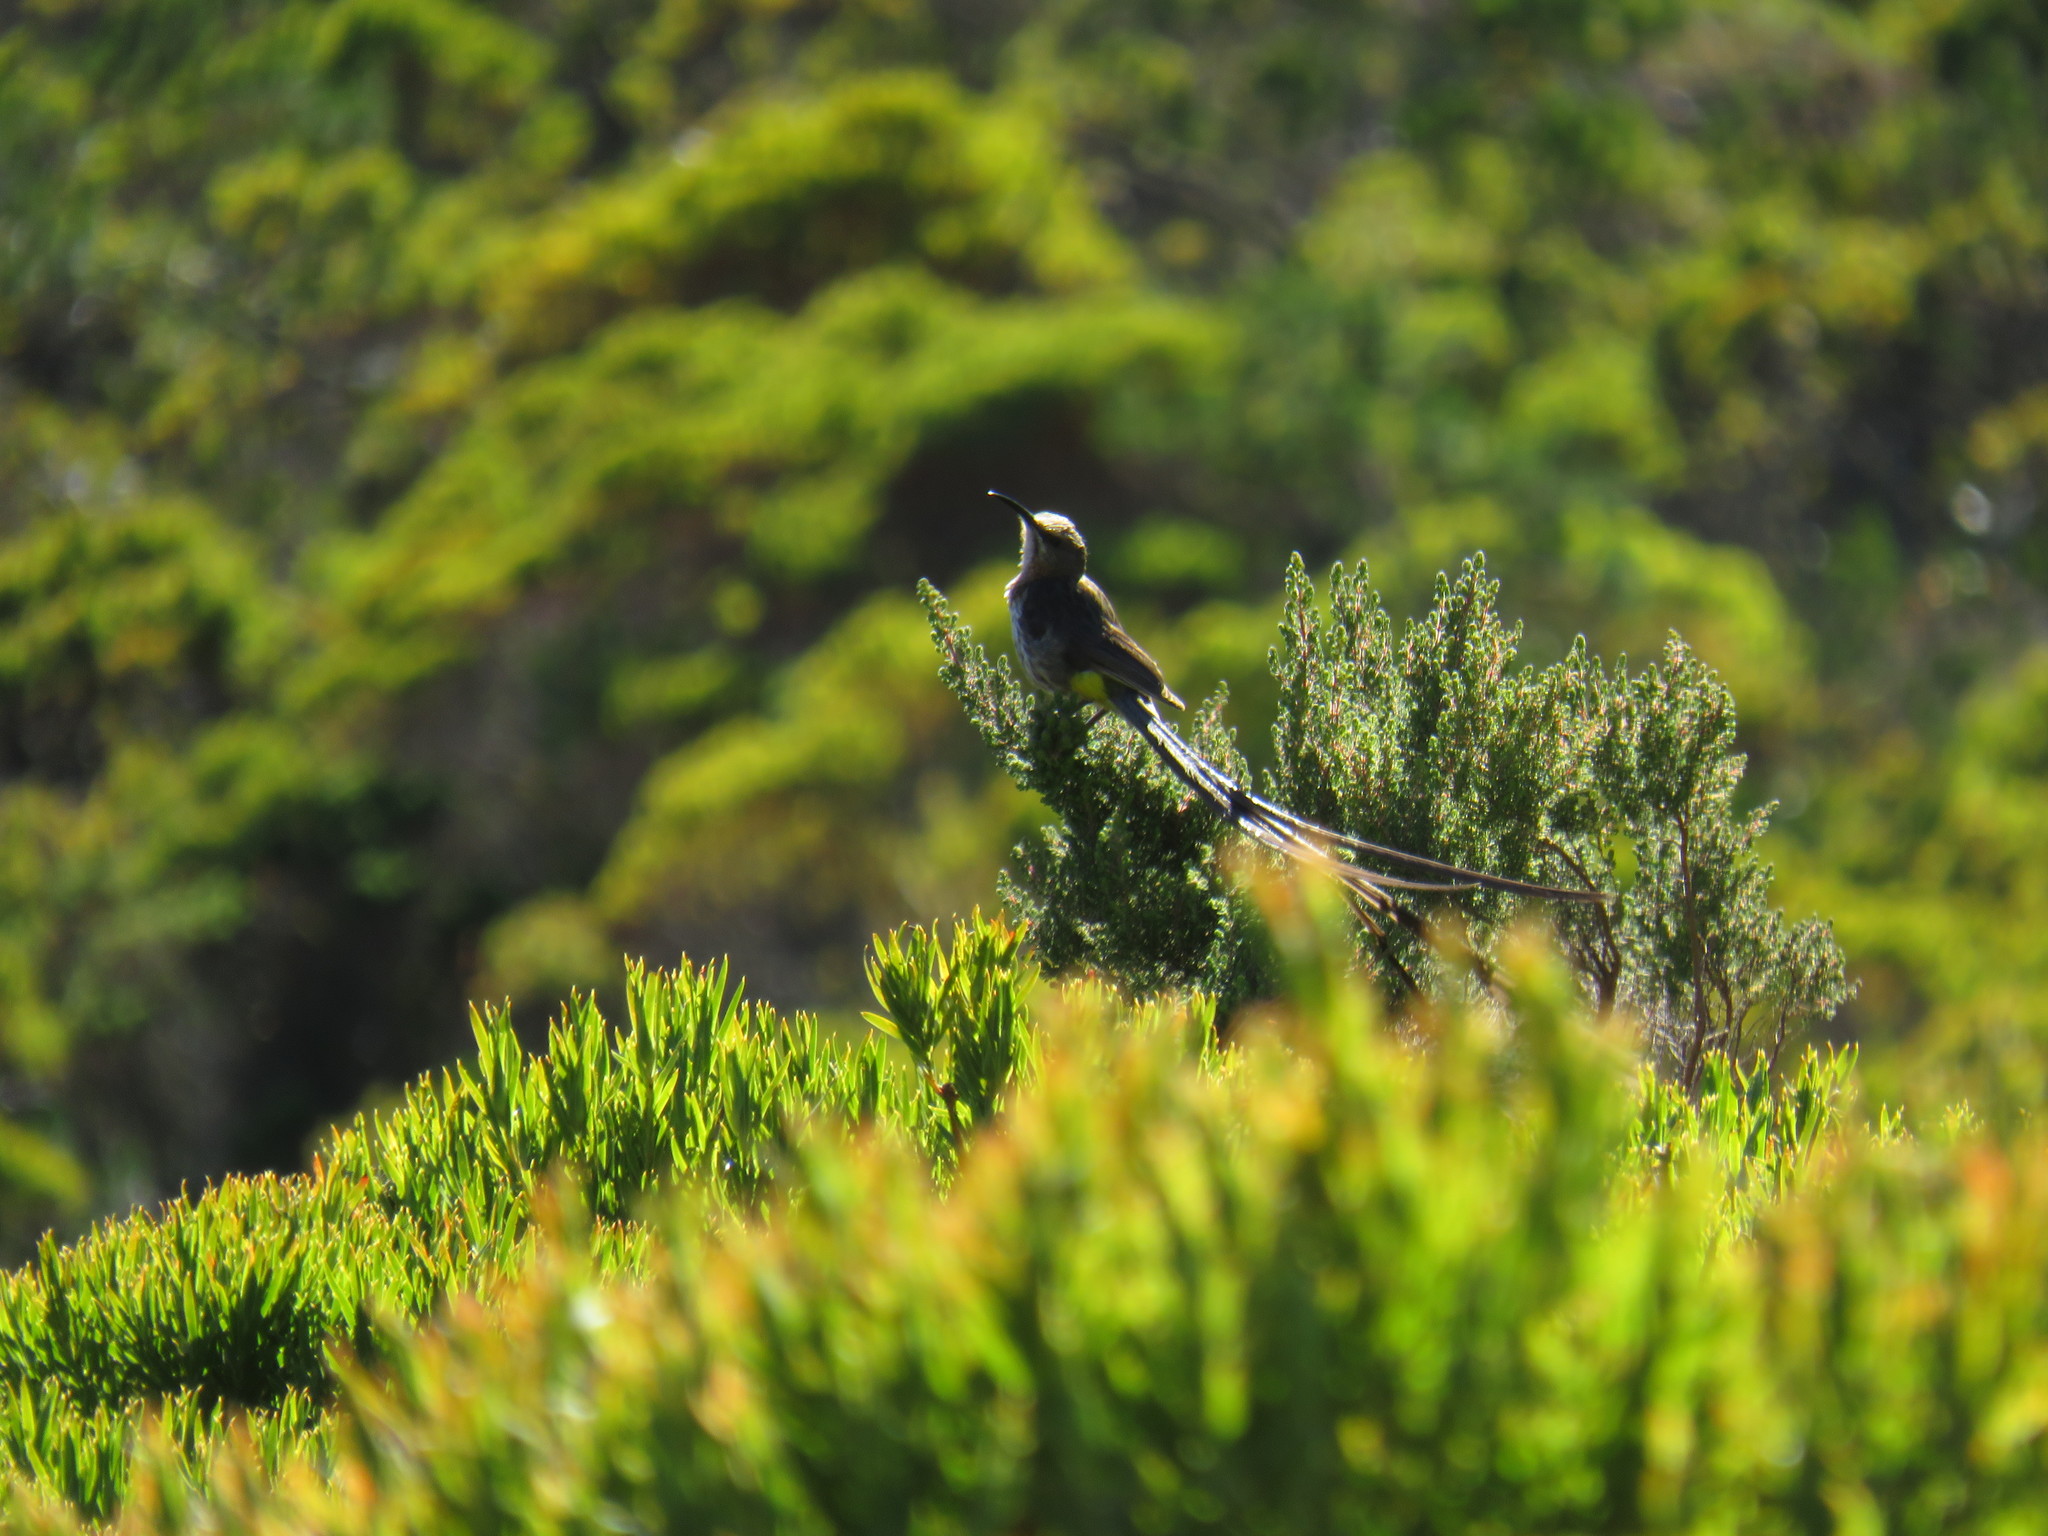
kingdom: Animalia
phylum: Chordata
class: Aves
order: Passeriformes
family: Promeropidae
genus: Promerops
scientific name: Promerops cafer
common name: Cape sugarbird
